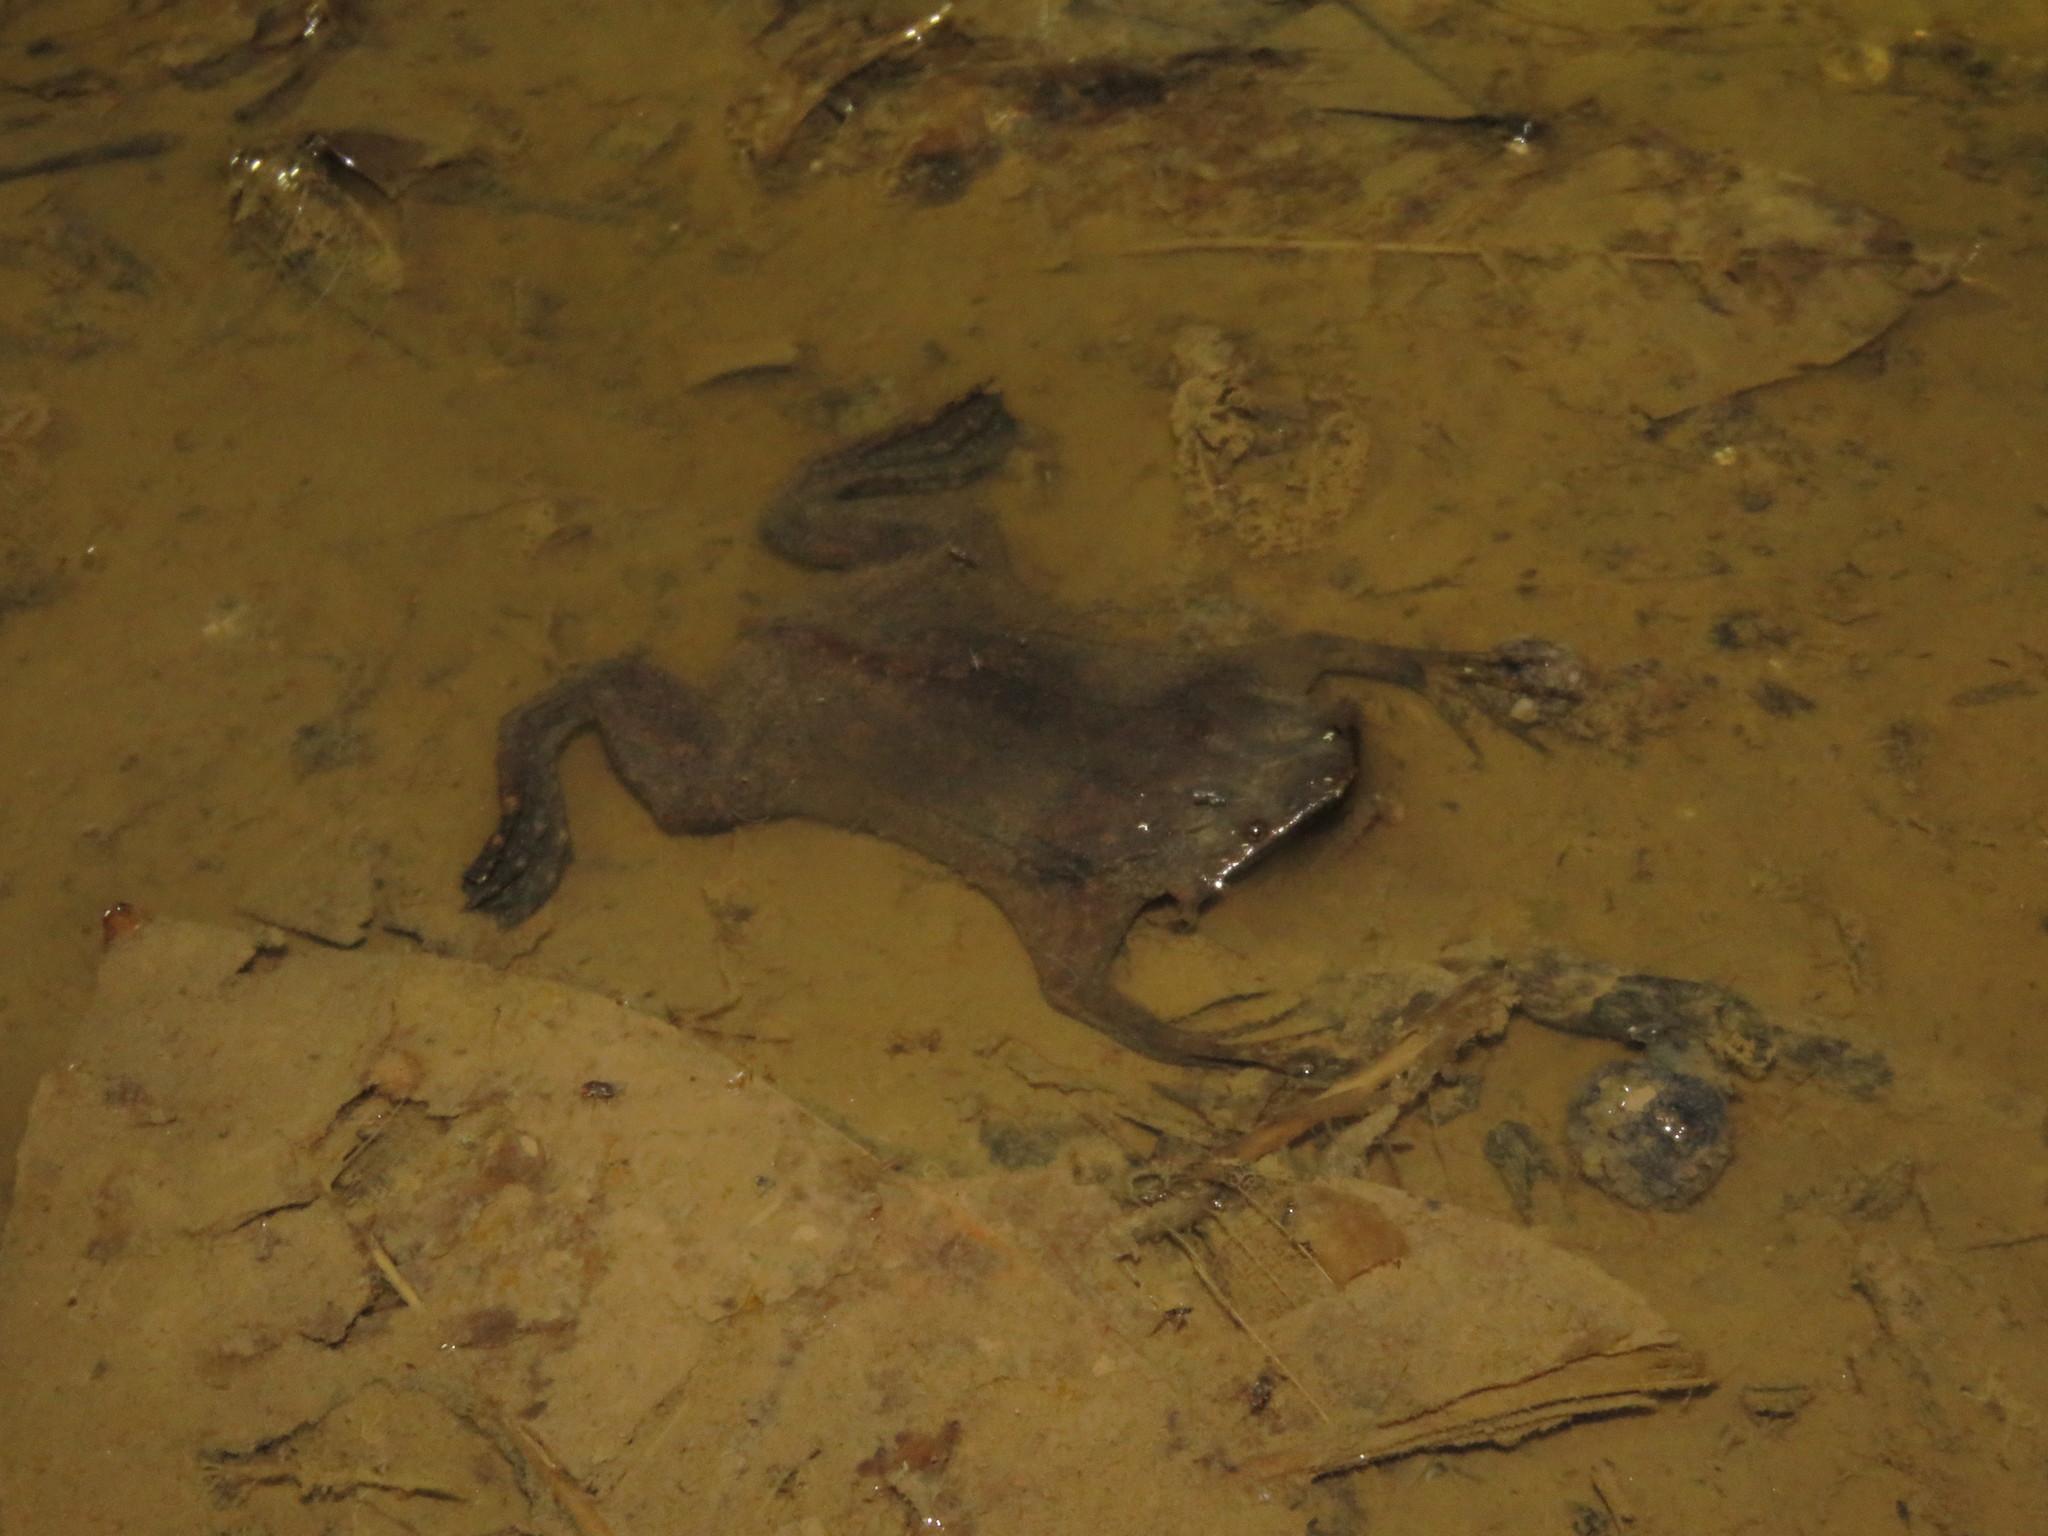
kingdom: Animalia
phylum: Chordata
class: Amphibia
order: Anura
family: Pipidae
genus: Pipa
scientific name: Pipa pipa
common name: Surinam toad
